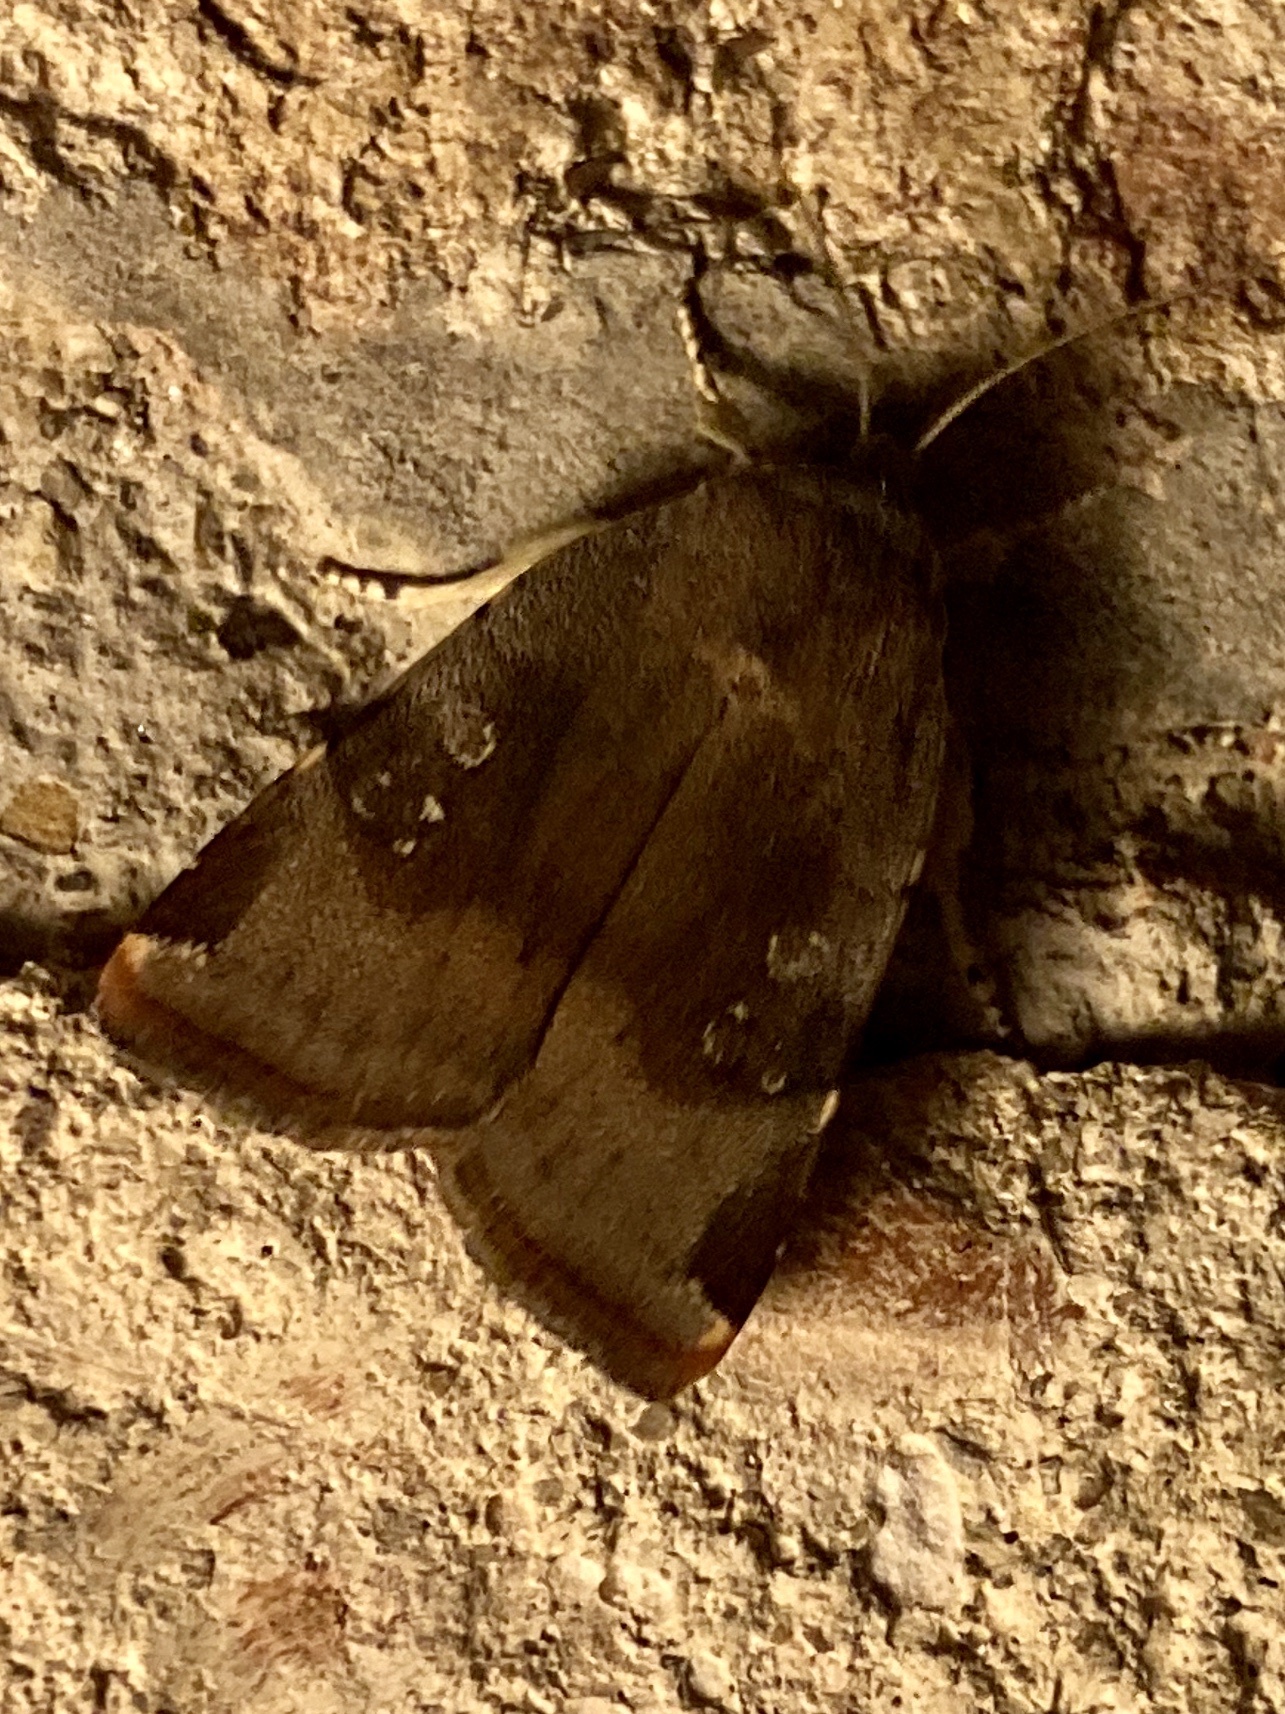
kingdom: Animalia
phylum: Arthropoda
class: Insecta
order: Lepidoptera
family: Noctuidae
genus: Noctua
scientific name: Noctua
